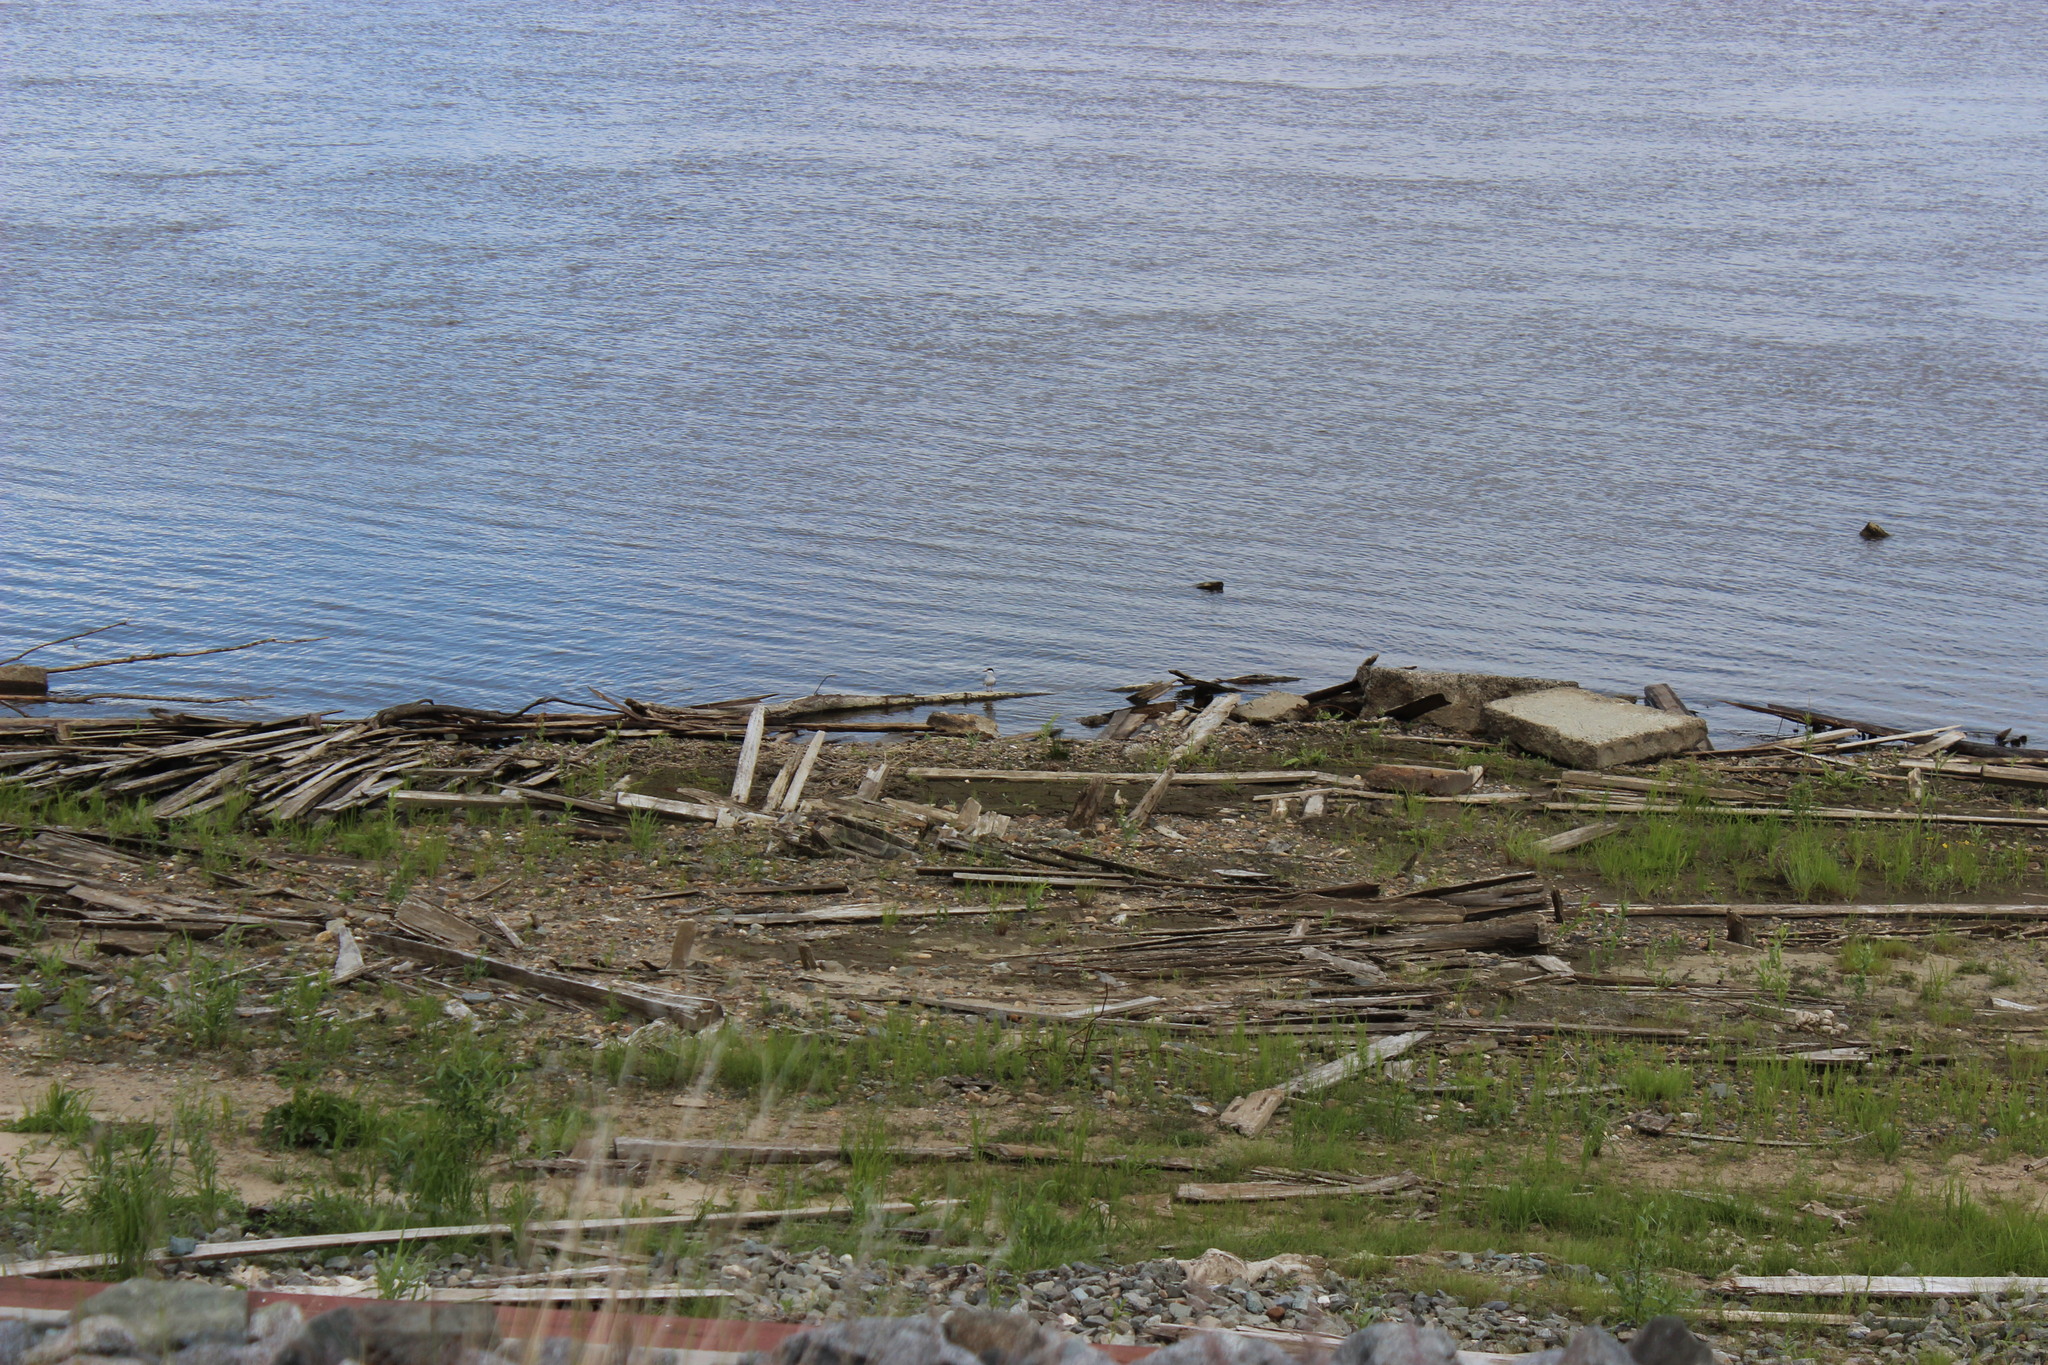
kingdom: Animalia
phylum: Chordata
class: Aves
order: Charadriiformes
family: Laridae
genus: Sterna
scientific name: Sterna hirundo
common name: Common tern
